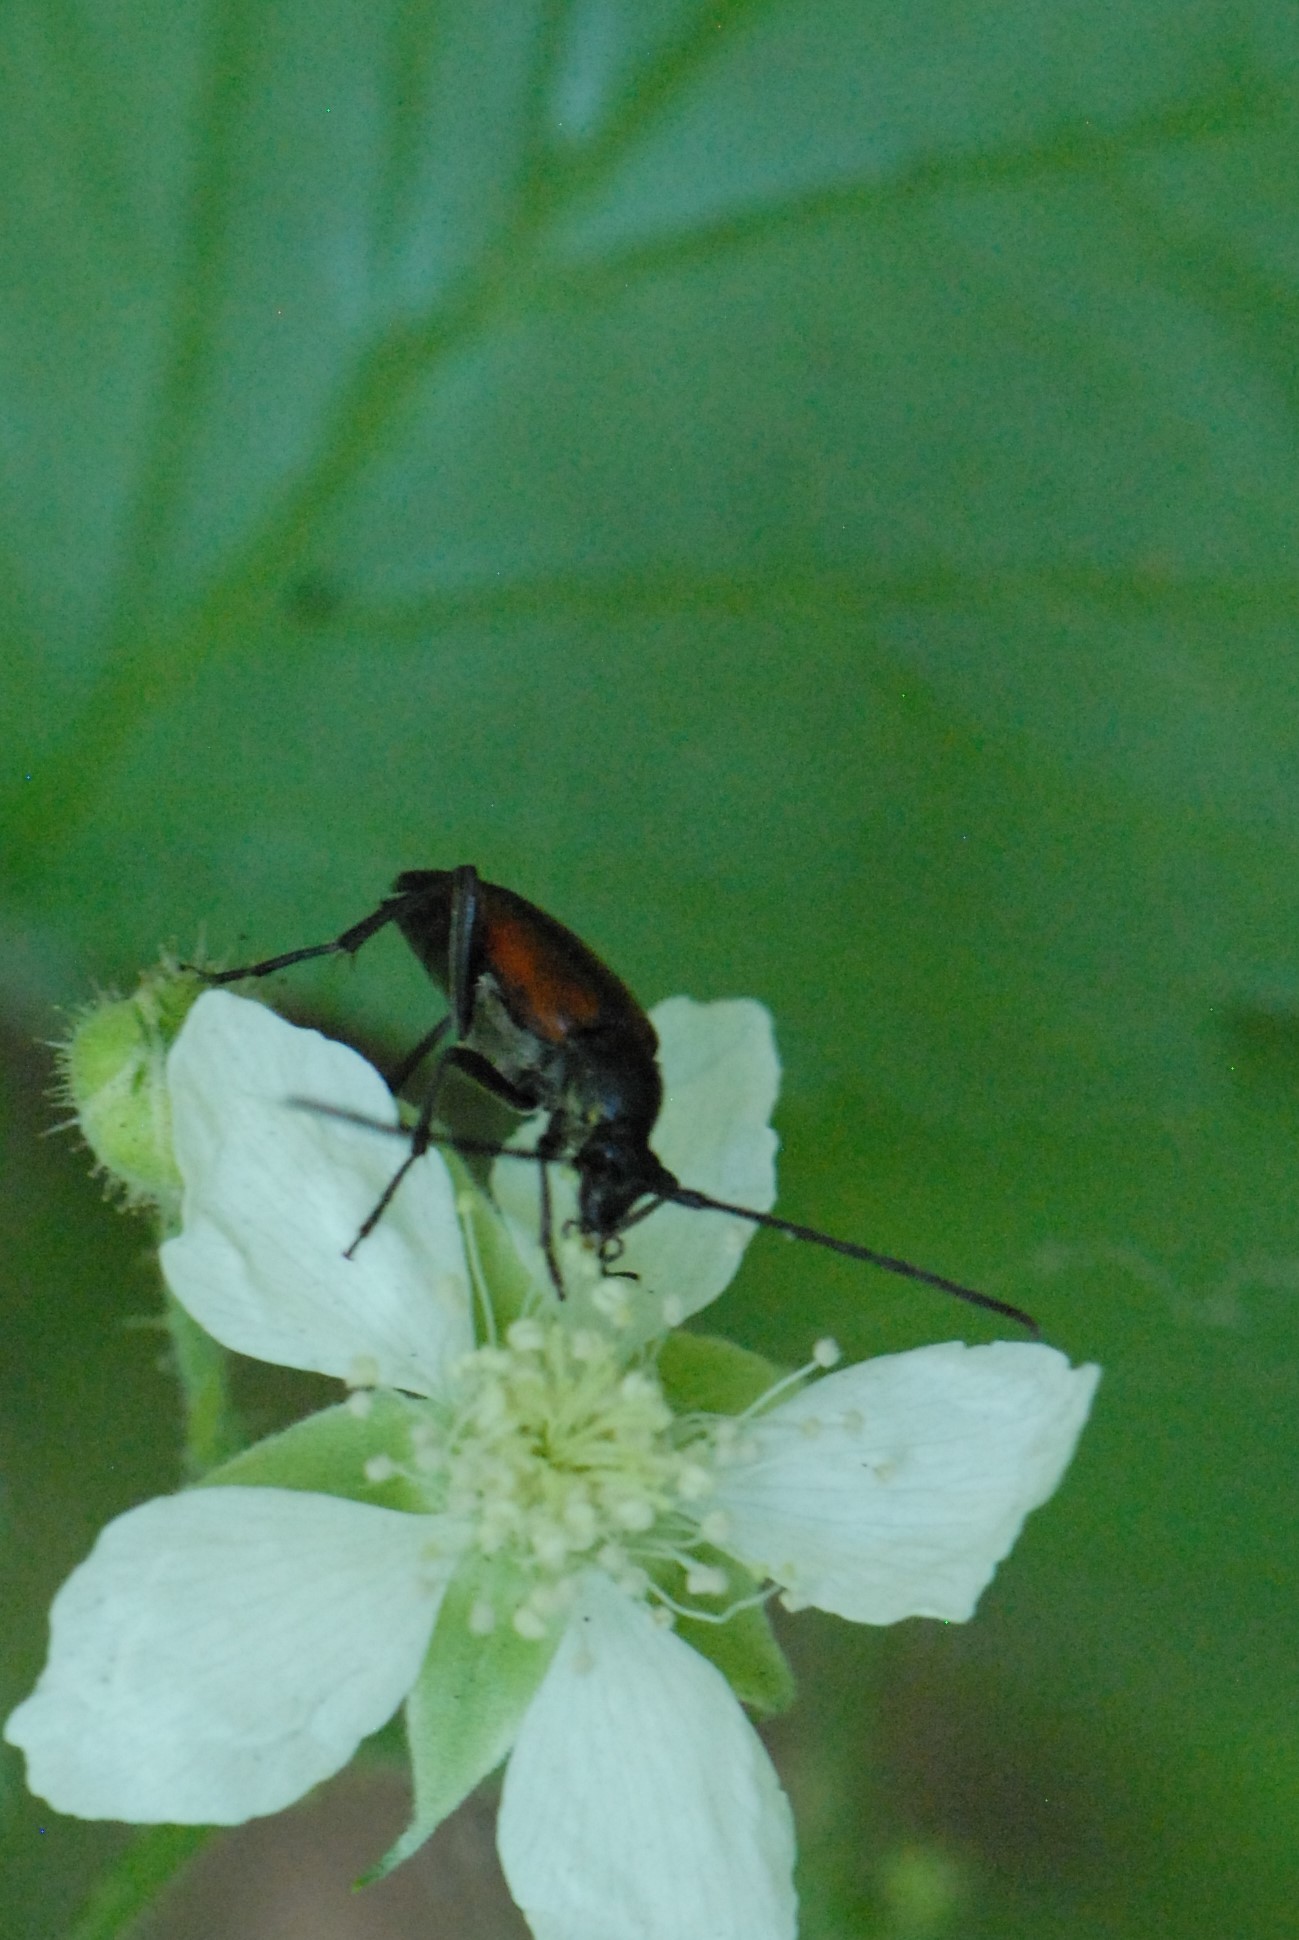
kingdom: Animalia
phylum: Arthropoda
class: Insecta
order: Coleoptera
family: Cerambycidae
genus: Stenurella
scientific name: Stenurella melanura
